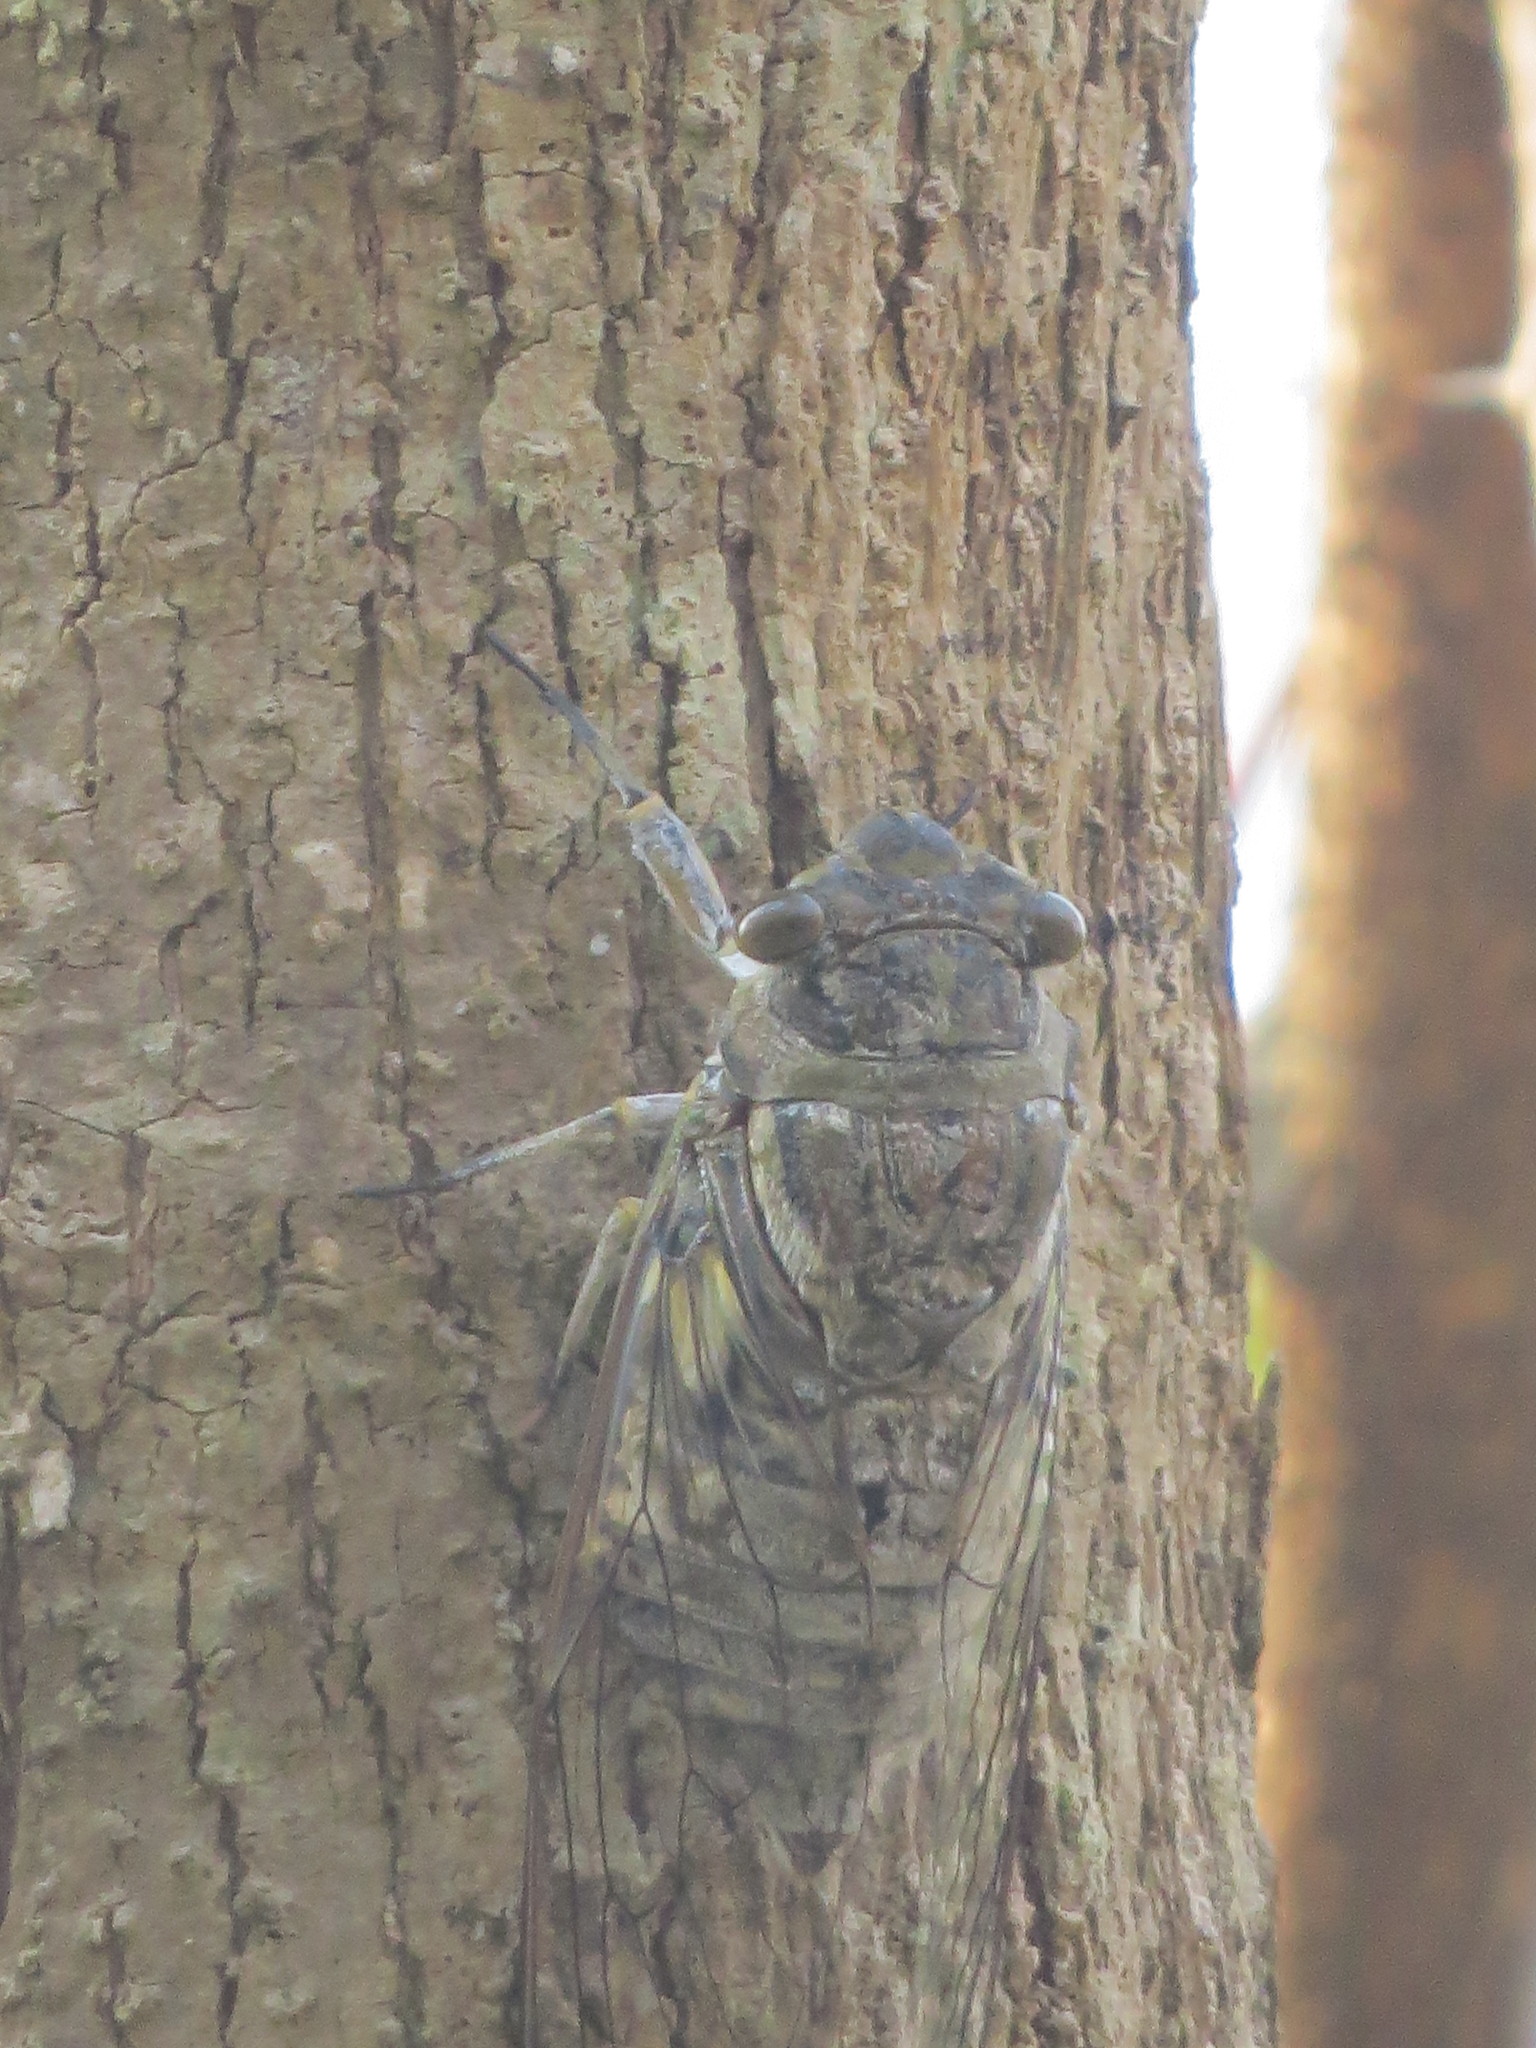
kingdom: Animalia
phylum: Arthropoda
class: Insecta
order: Hemiptera
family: Cicadidae
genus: Quesada
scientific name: Quesada gigas
